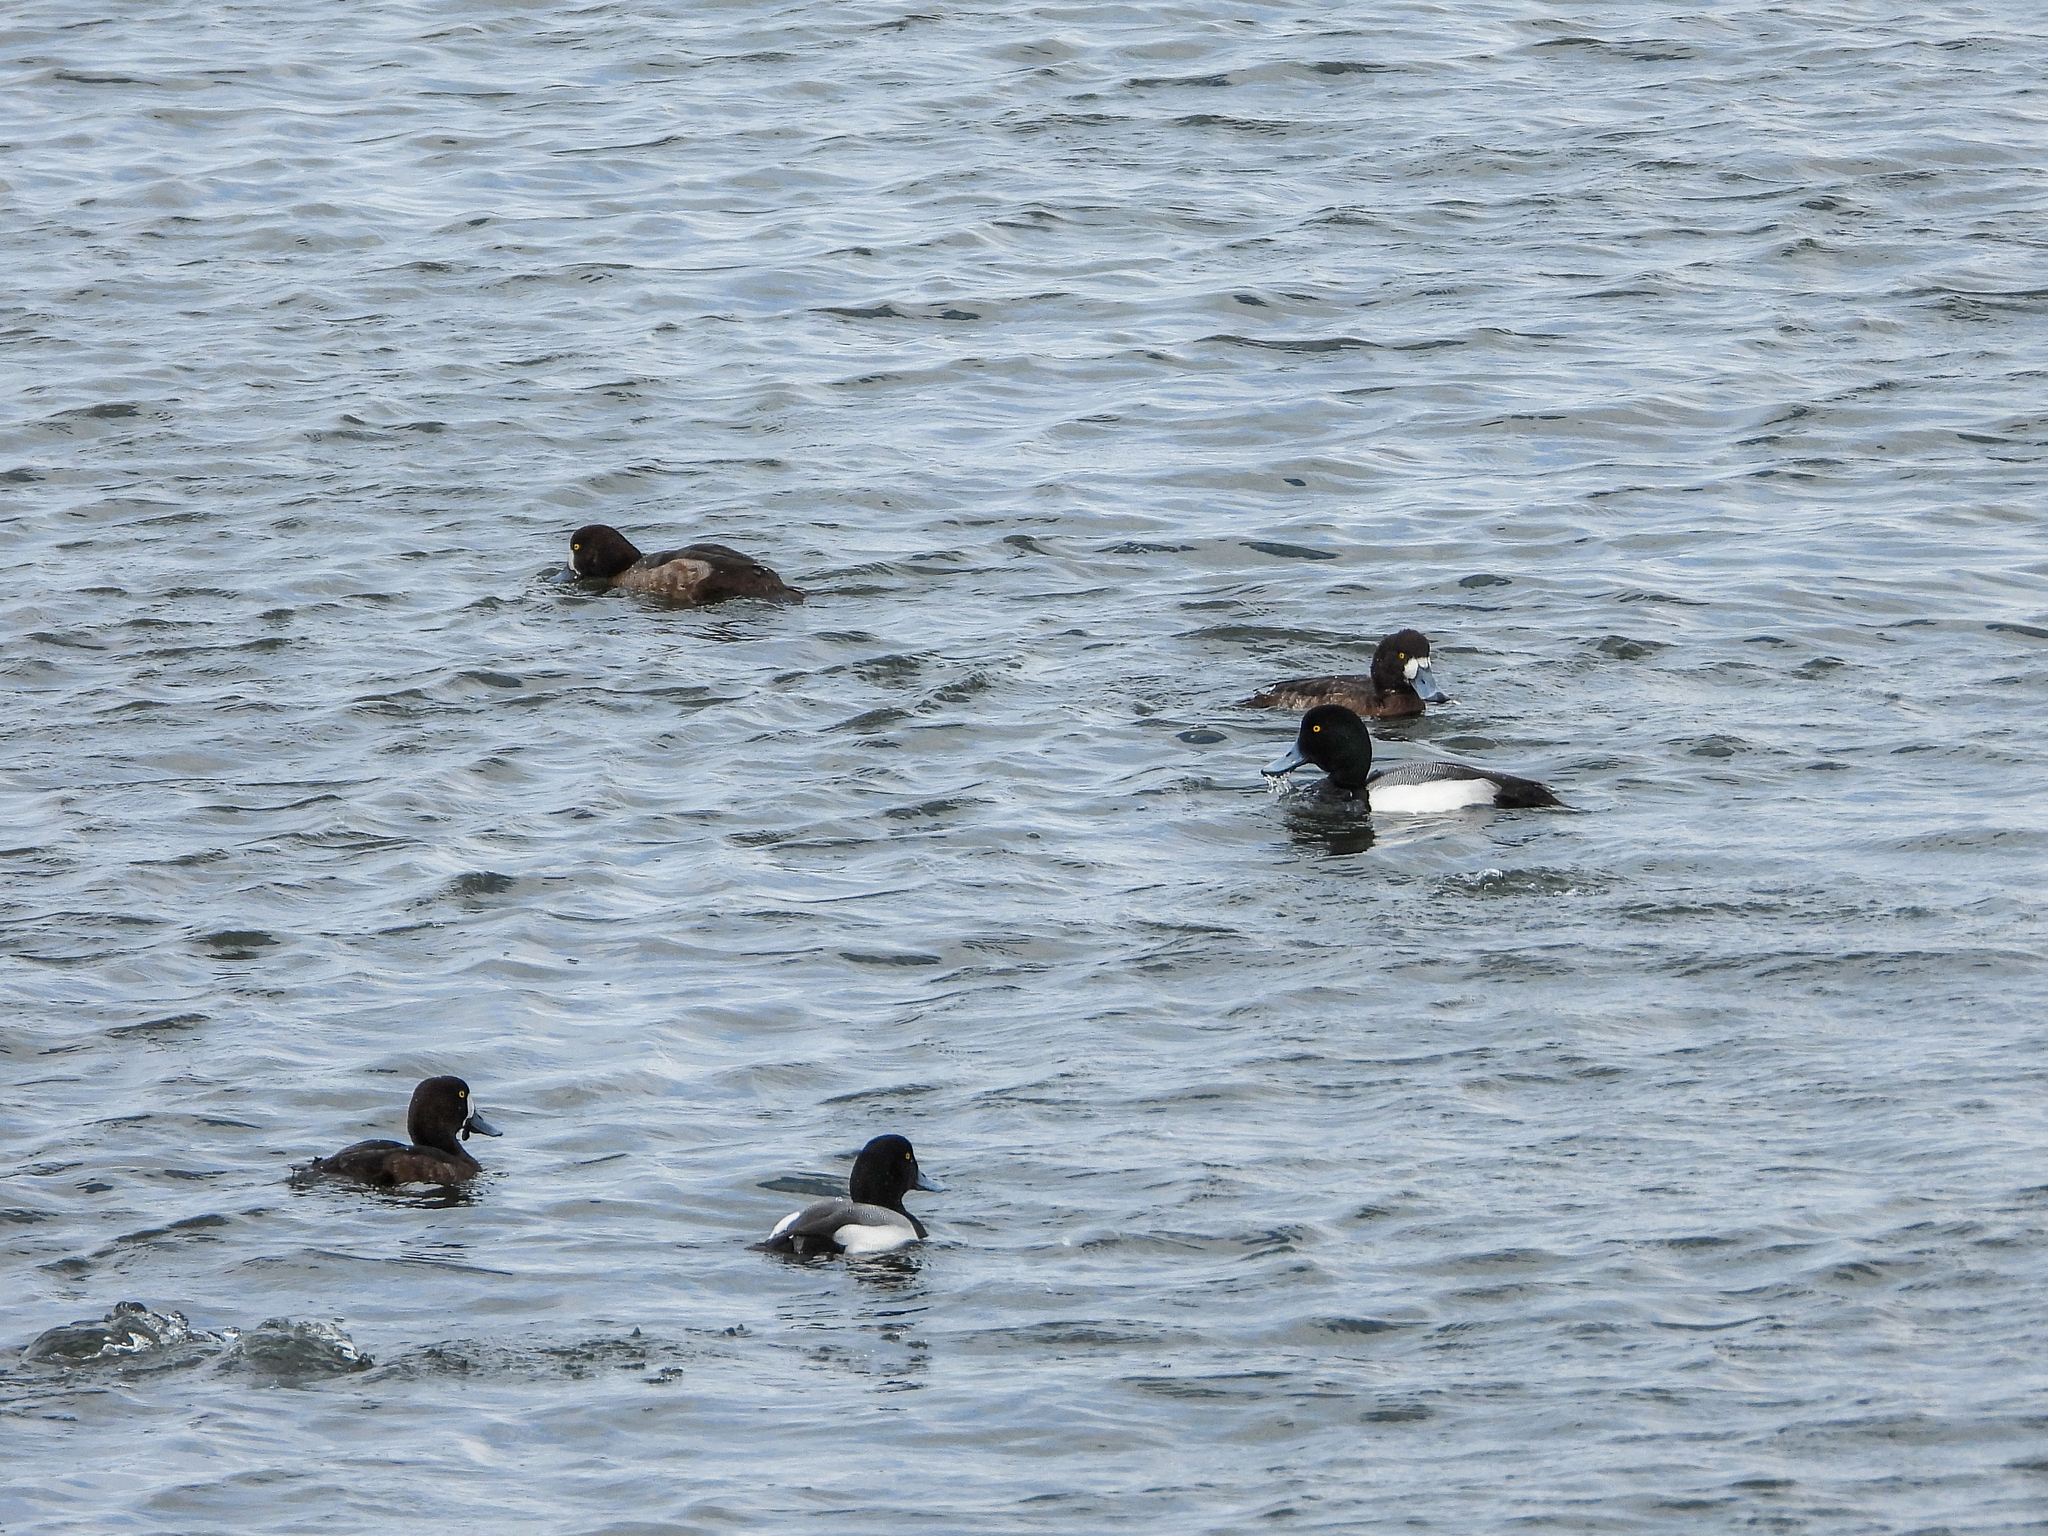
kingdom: Animalia
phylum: Chordata
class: Aves
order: Anseriformes
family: Anatidae
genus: Aythya
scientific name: Aythya marila
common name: Greater scaup
